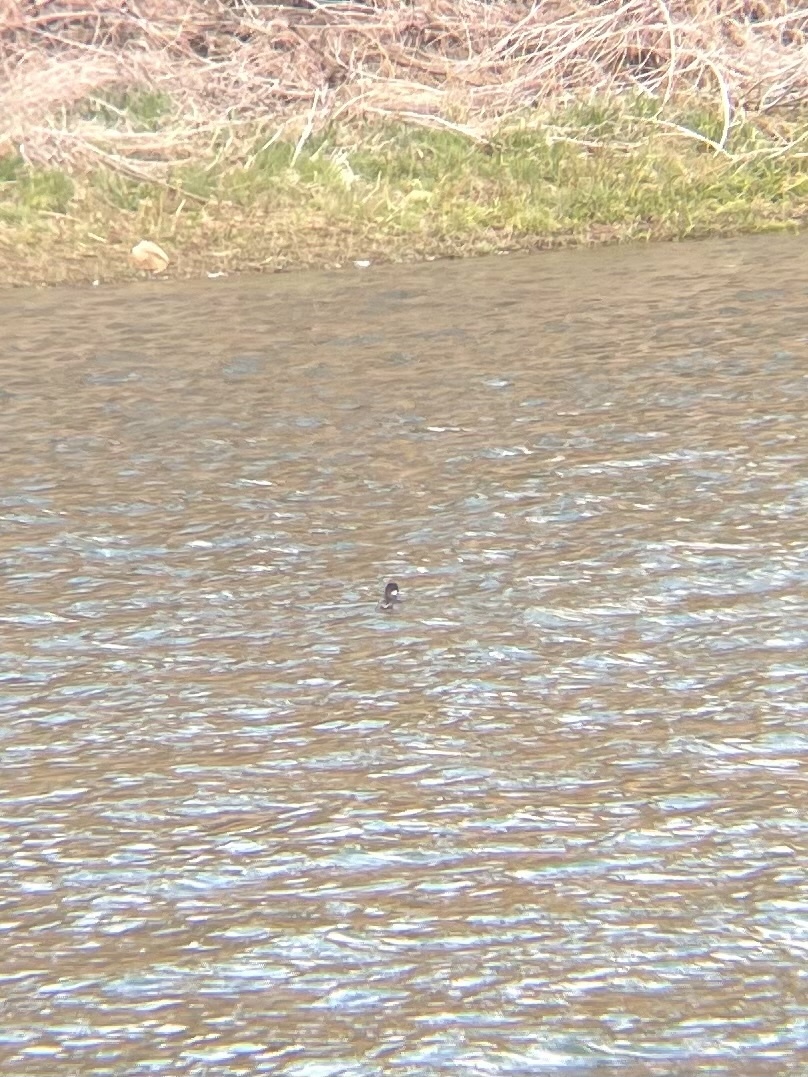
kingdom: Animalia
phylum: Chordata
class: Aves
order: Anseriformes
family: Anatidae
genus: Bucephala
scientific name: Bucephala albeola
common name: Bufflehead
